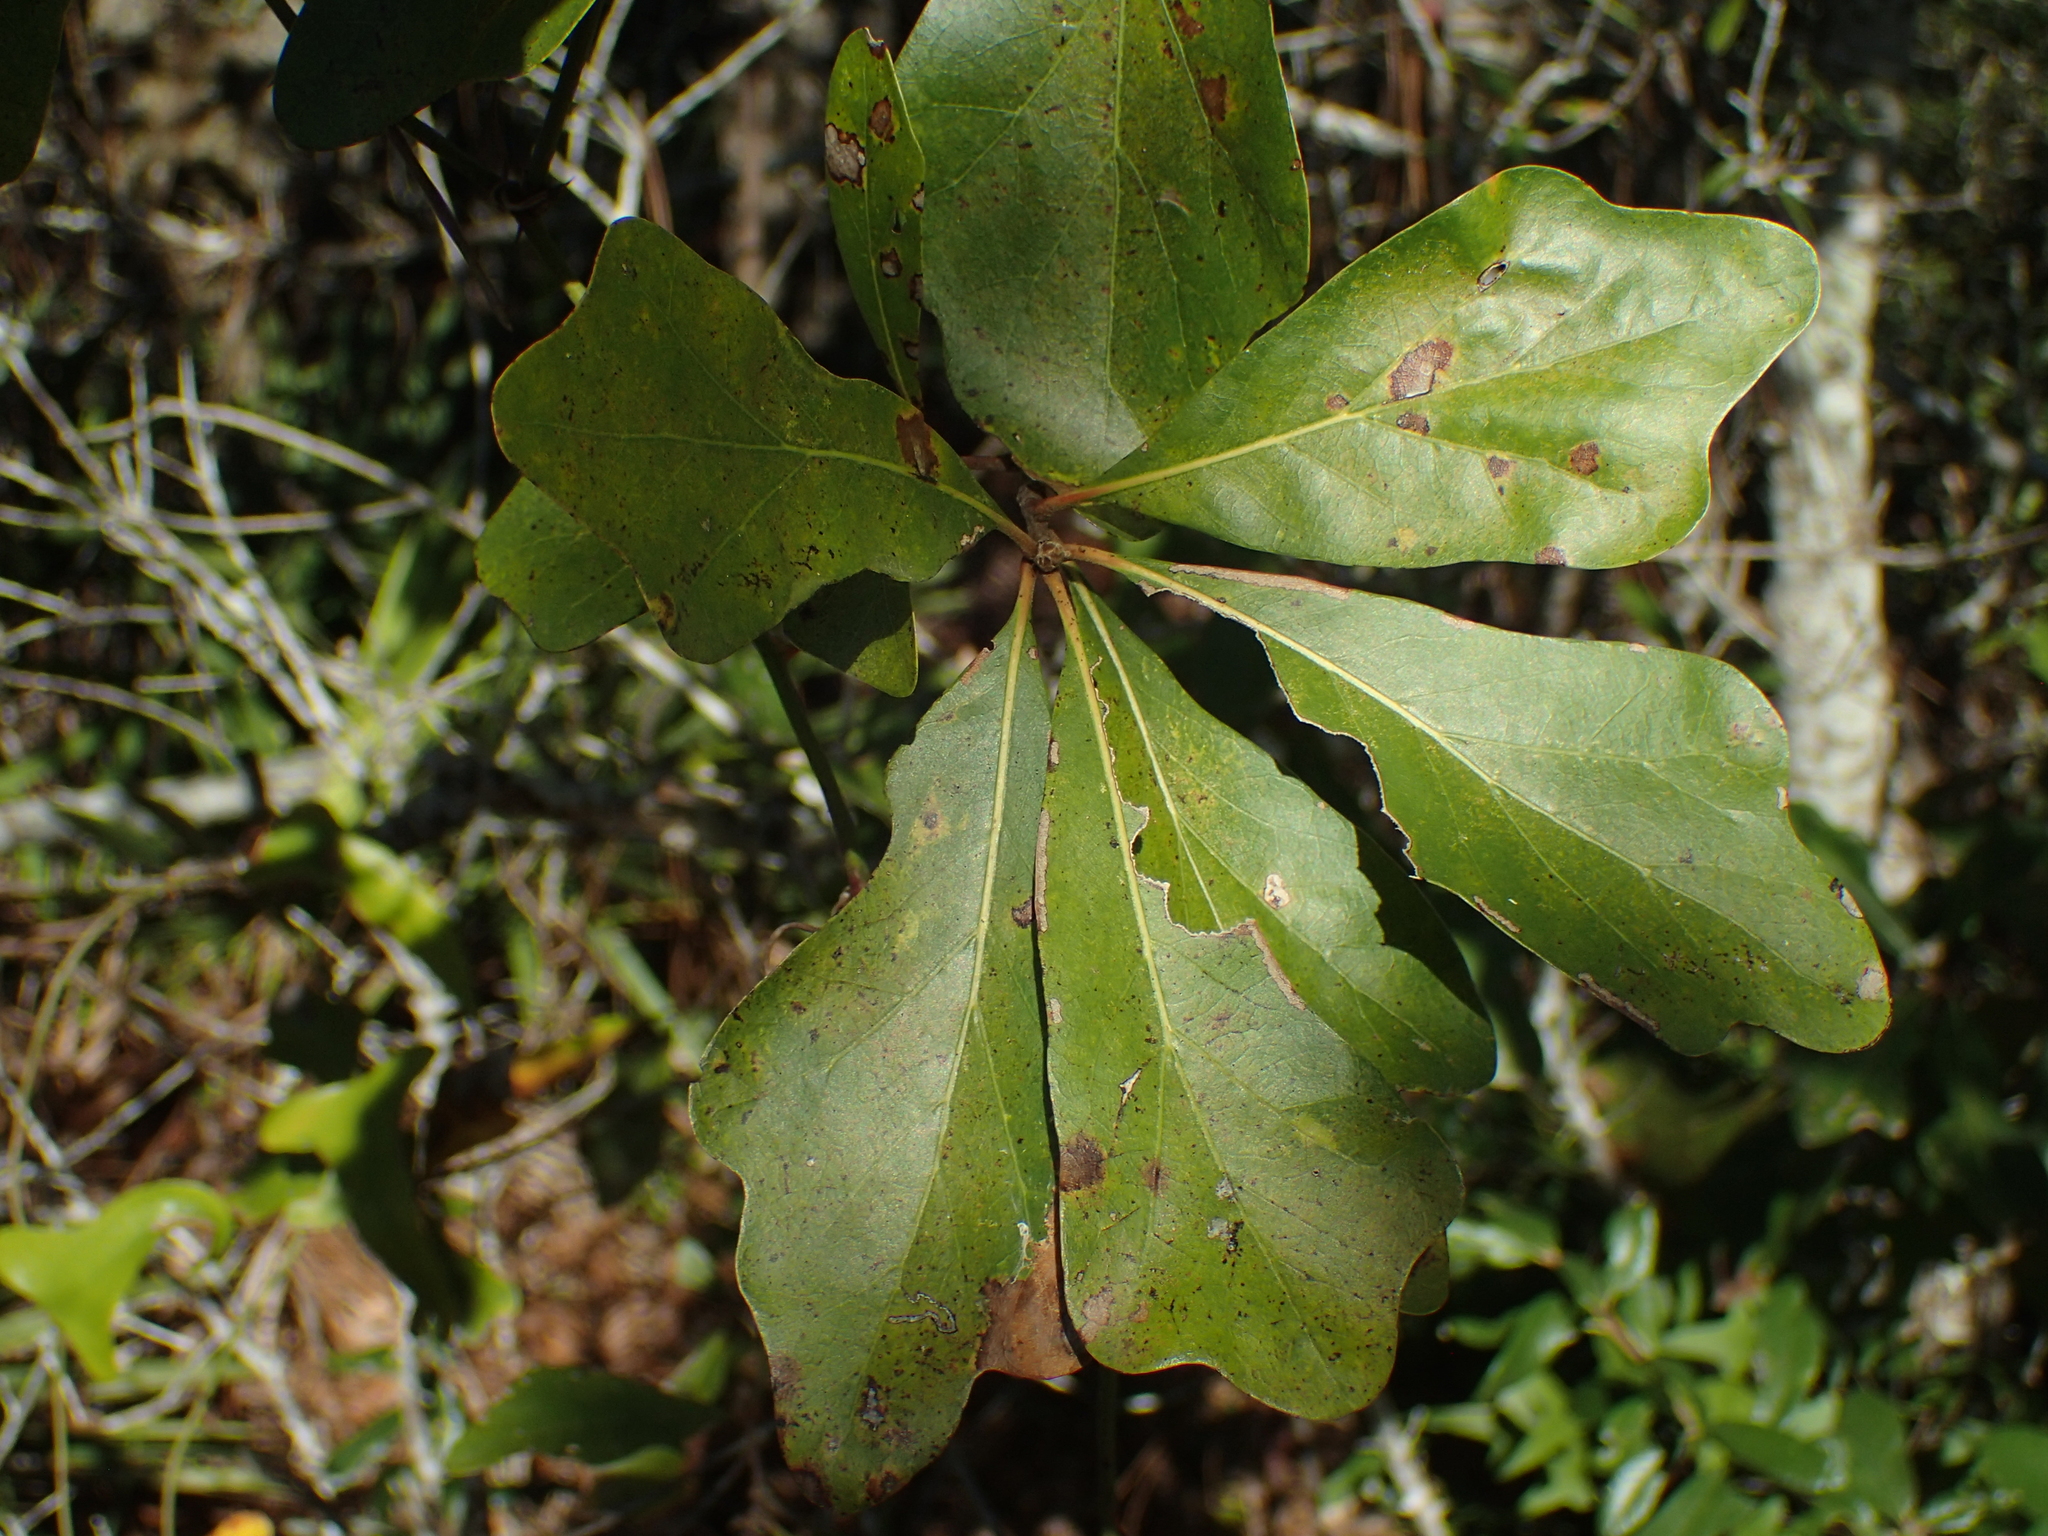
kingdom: Plantae
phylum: Tracheophyta
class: Magnoliopsida
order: Fagales
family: Fagaceae
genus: Quercus
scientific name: Quercus nigra
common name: Water oak
